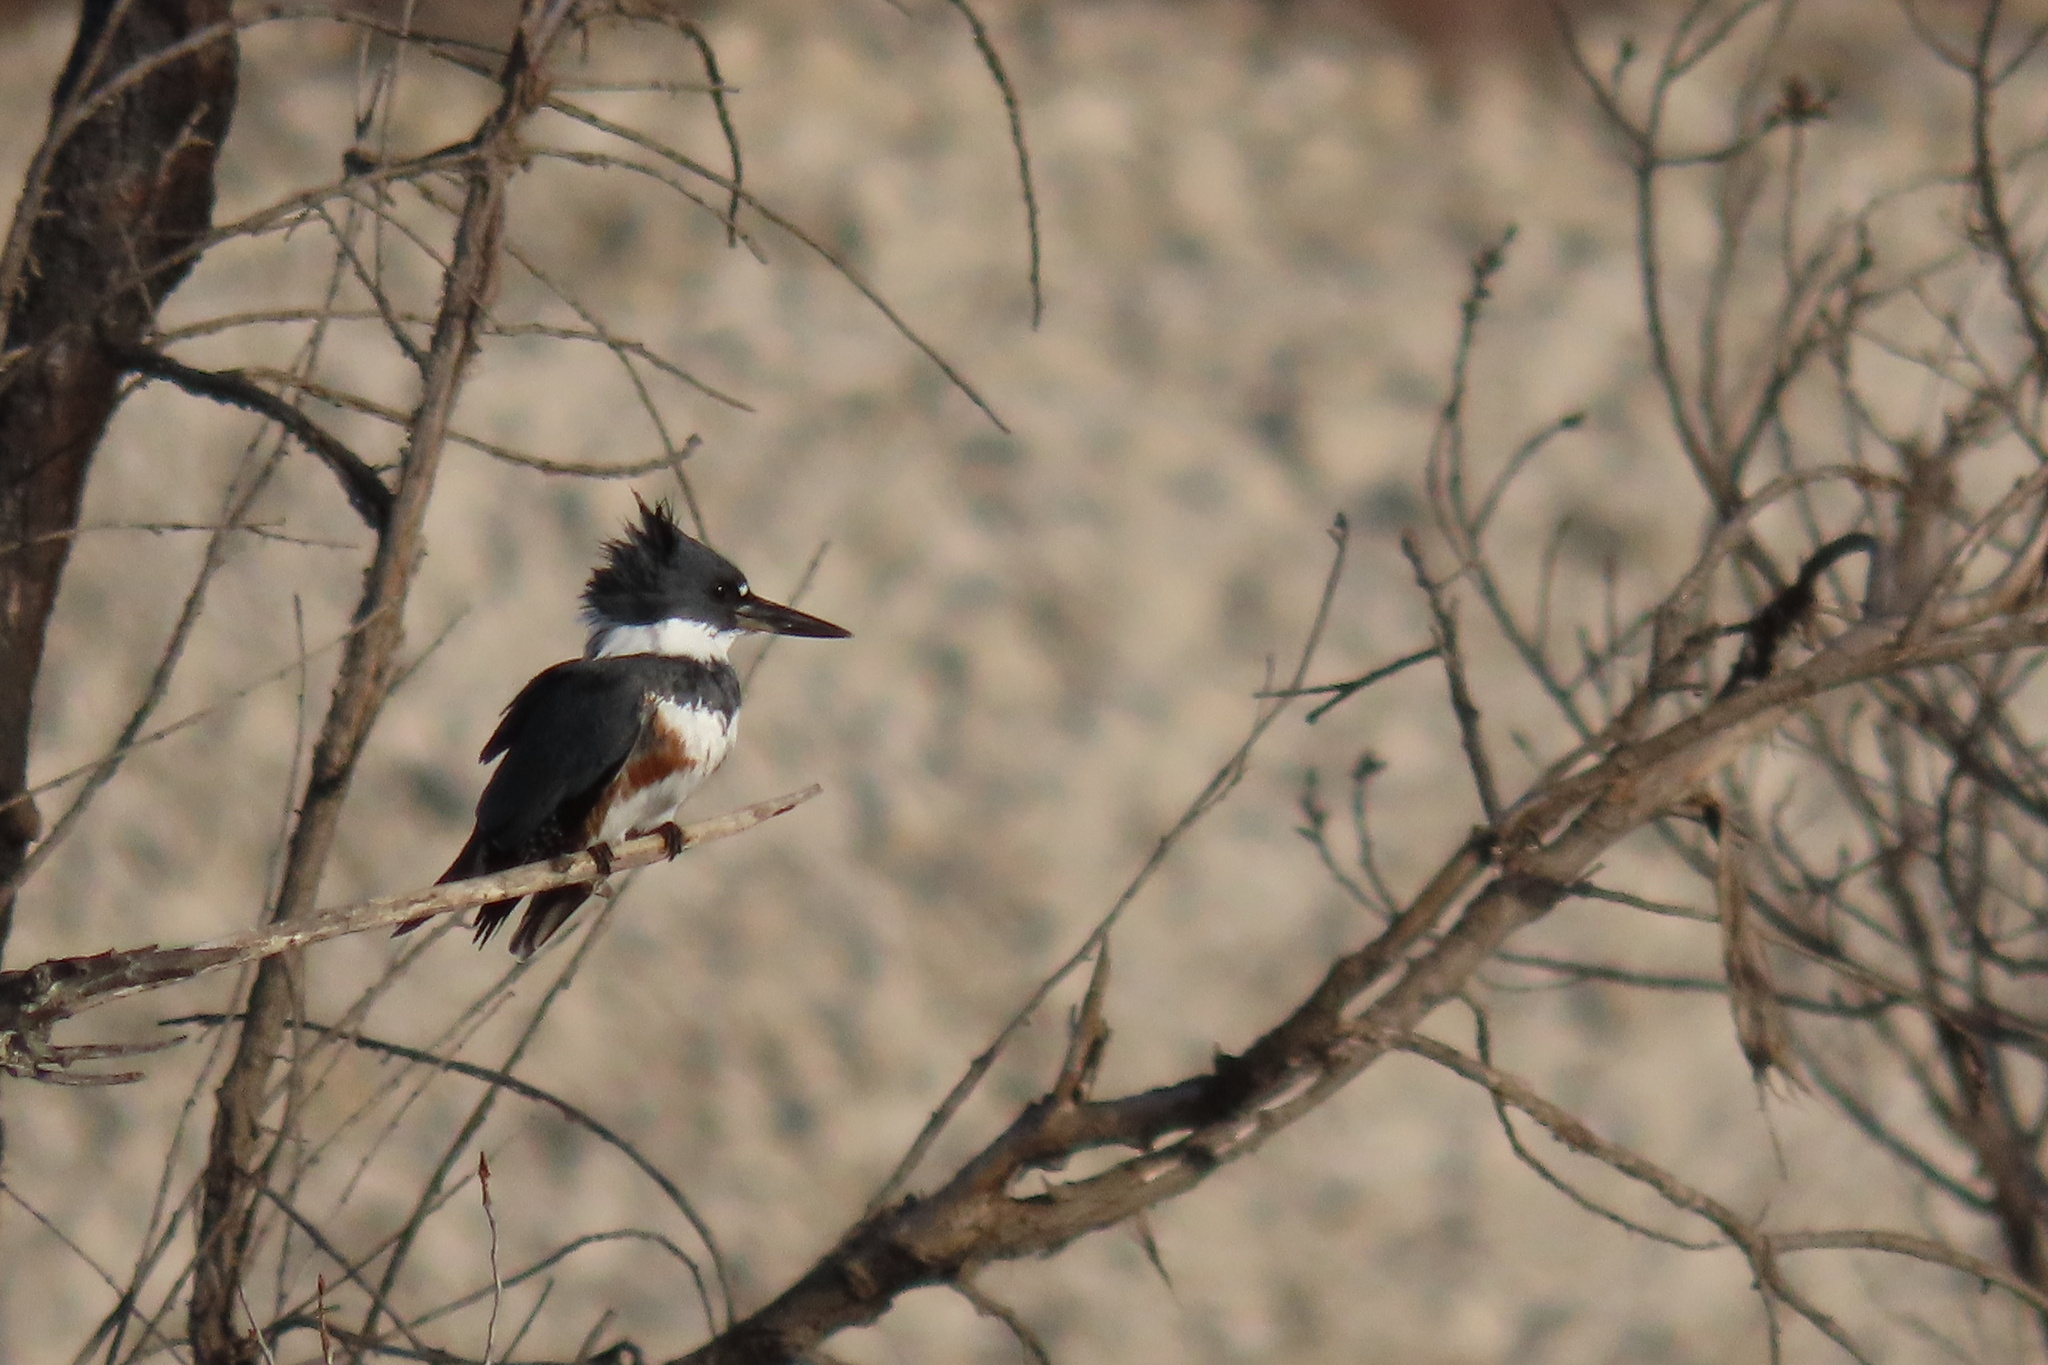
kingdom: Animalia
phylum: Chordata
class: Aves
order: Coraciiformes
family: Alcedinidae
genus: Megaceryle
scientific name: Megaceryle alcyon
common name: Belted kingfisher
